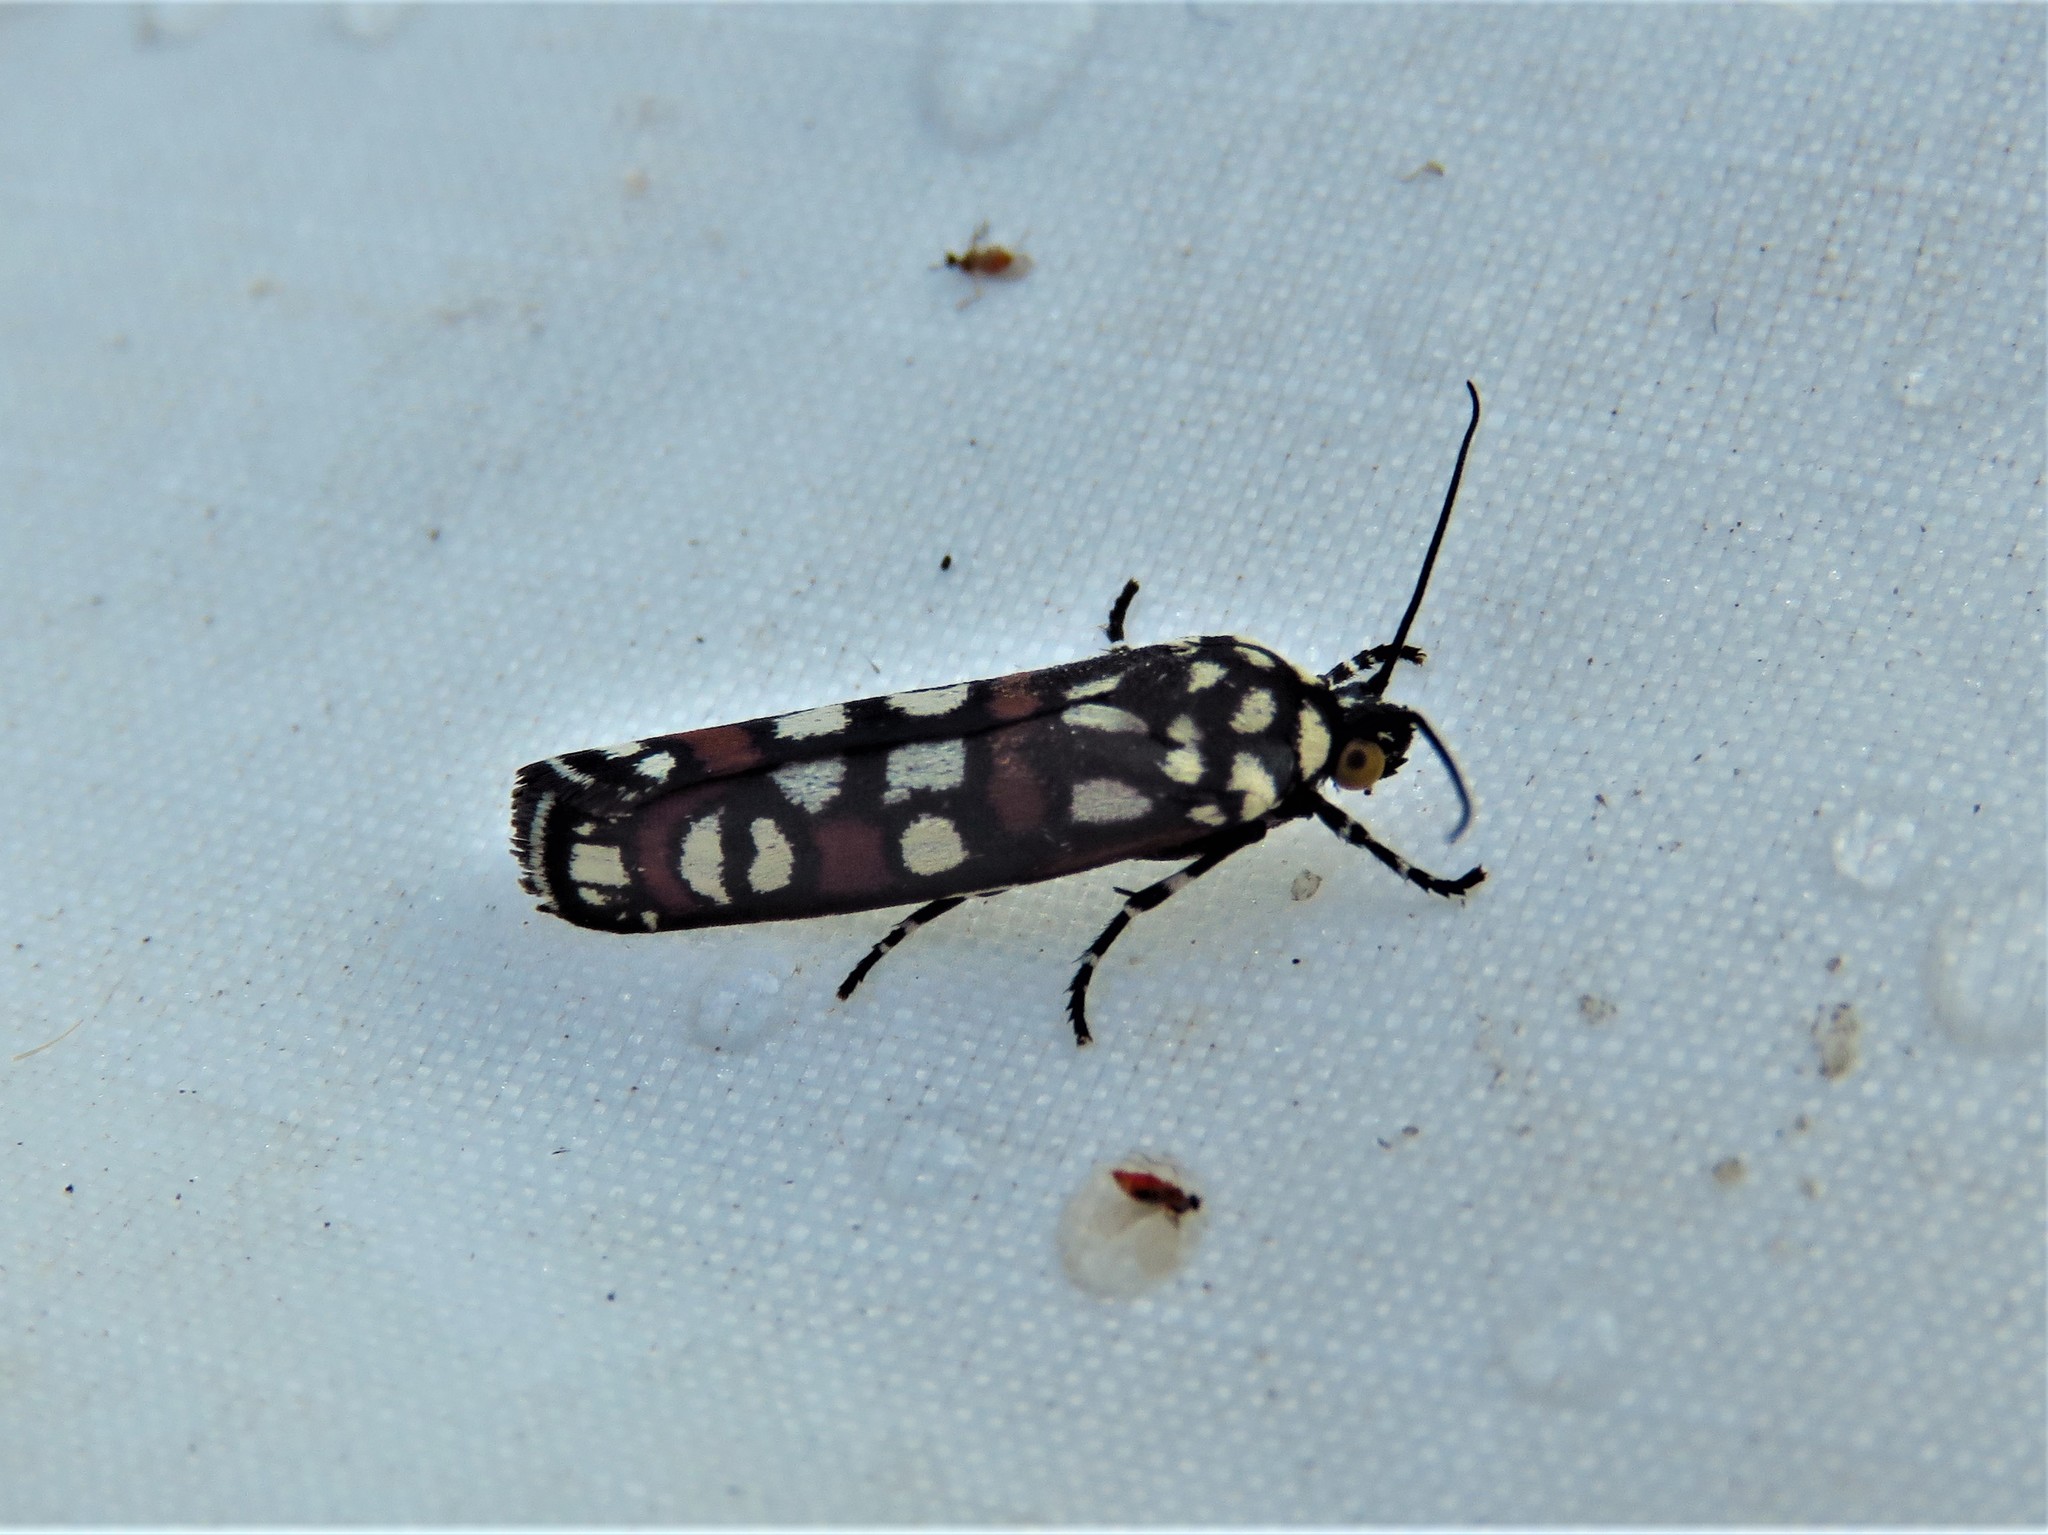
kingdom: Animalia
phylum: Arthropoda
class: Insecta
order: Lepidoptera
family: Noctuidae
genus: Cydosia
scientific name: Cydosia aurivitta
